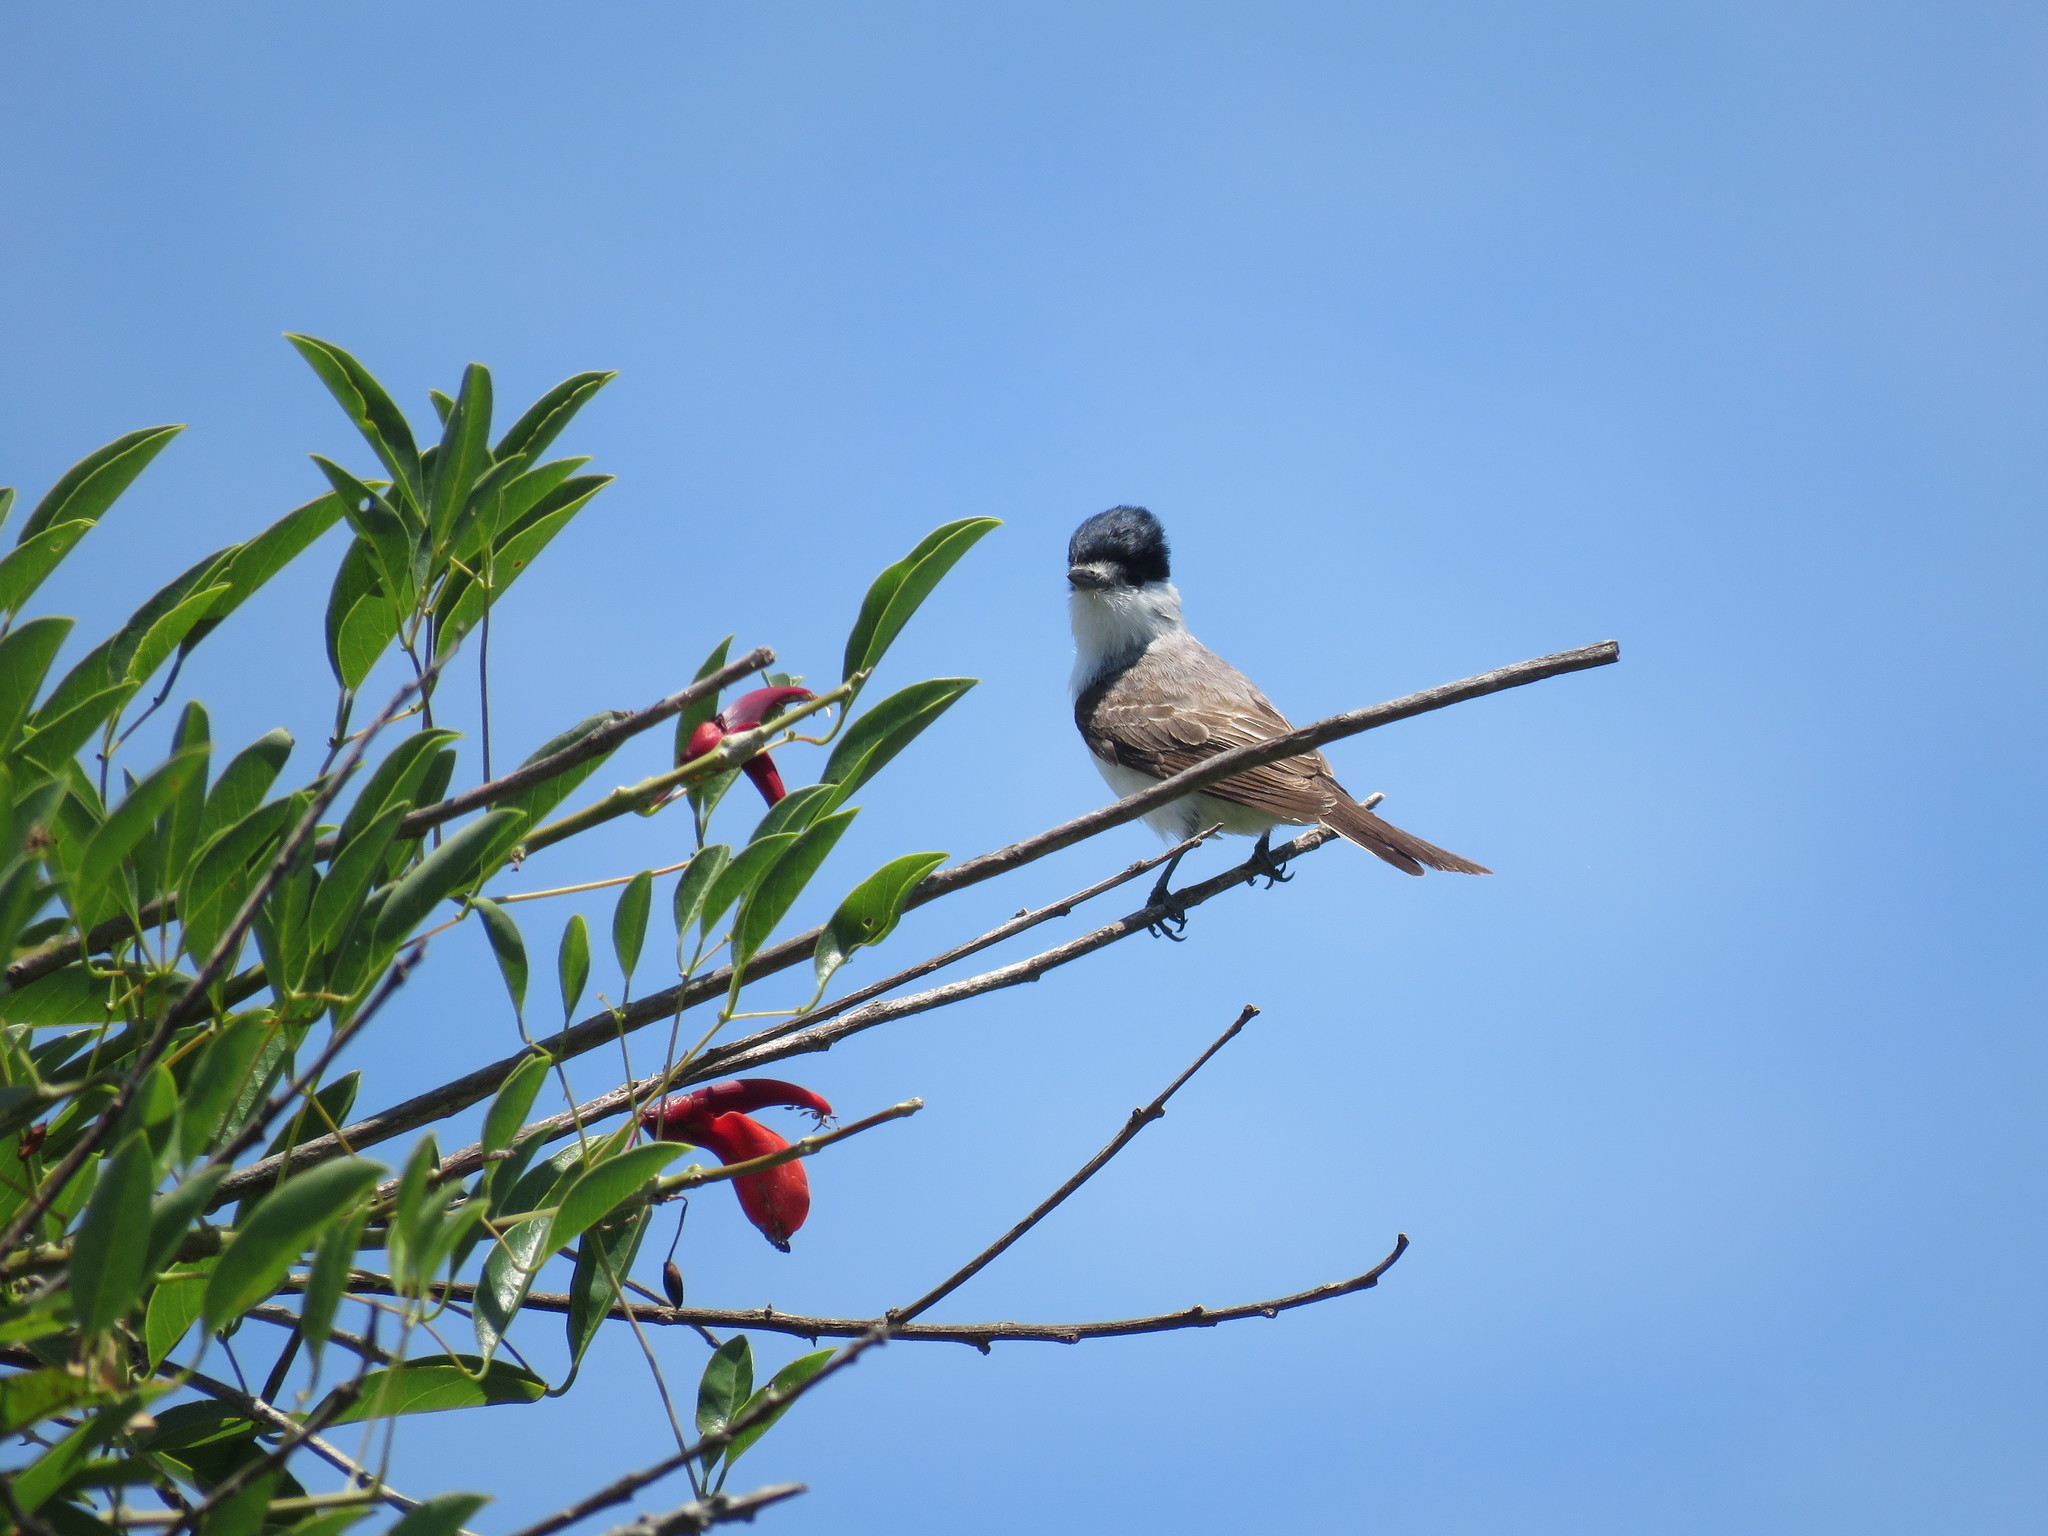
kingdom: Animalia
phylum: Chordata
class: Aves
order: Passeriformes
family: Cotingidae
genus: Xenopsaris
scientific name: Xenopsaris albinucha
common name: White-naped xenopsaris
